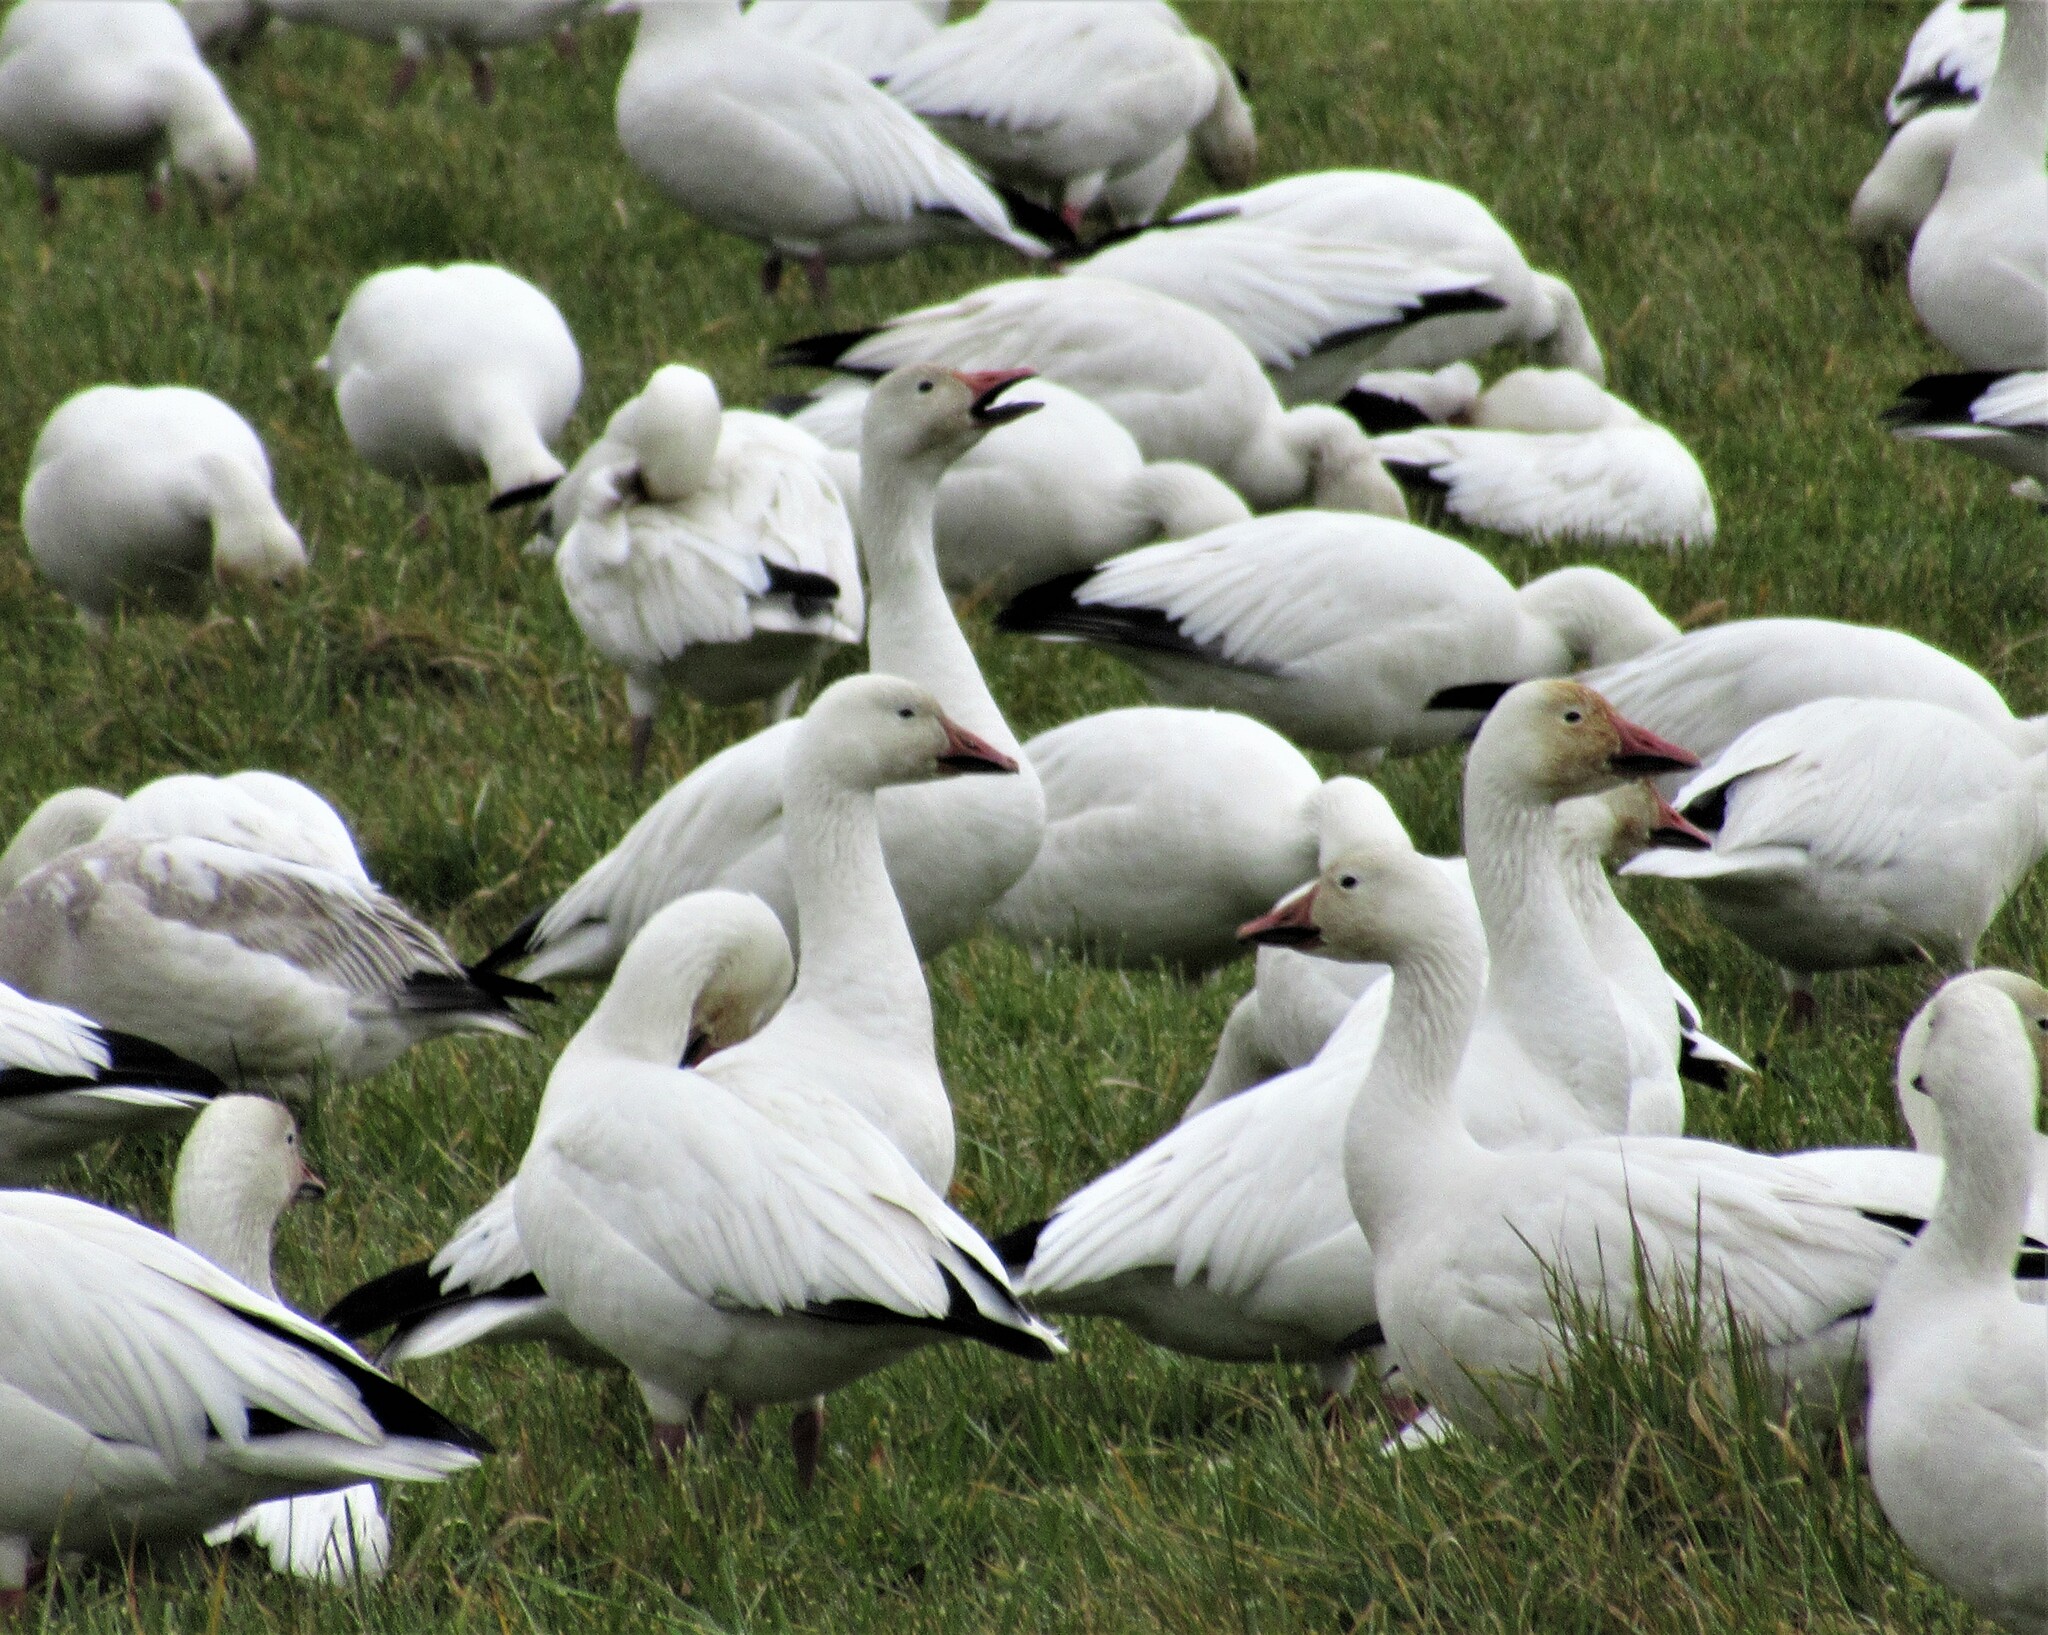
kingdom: Animalia
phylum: Chordata
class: Aves
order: Anseriformes
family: Anatidae
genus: Anser
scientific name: Anser caerulescens
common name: Snow goose
